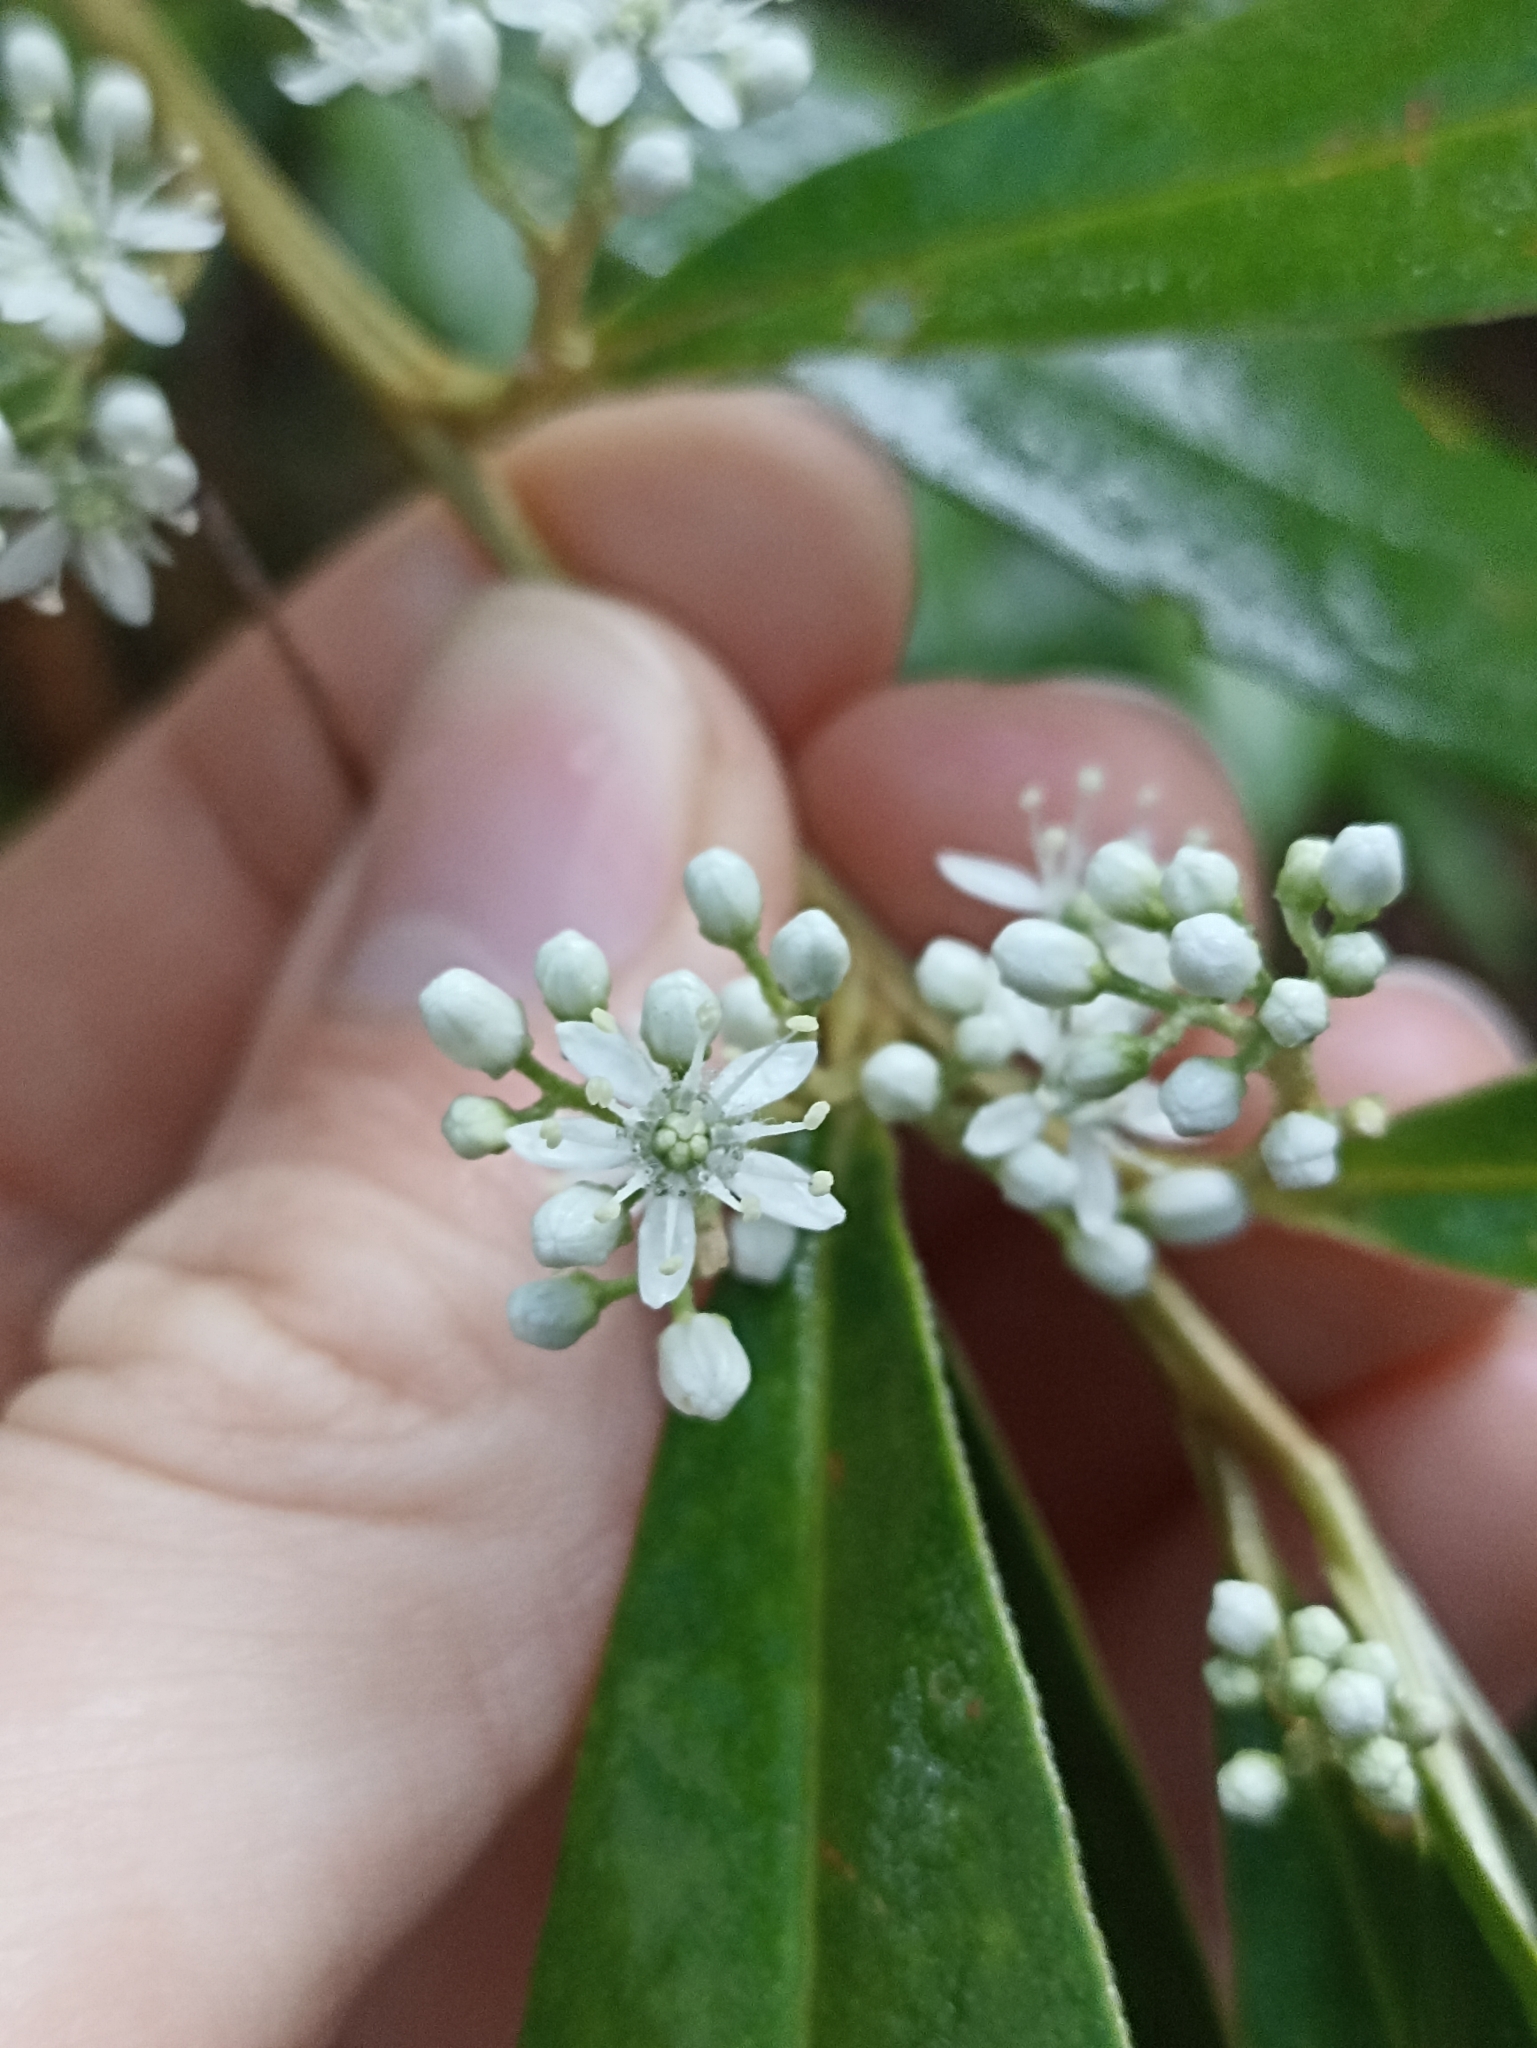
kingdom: Plantae
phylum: Tracheophyta
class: Magnoliopsida
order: Sapindales
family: Rutaceae
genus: Nematolepis
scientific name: Nematolepis squamea
